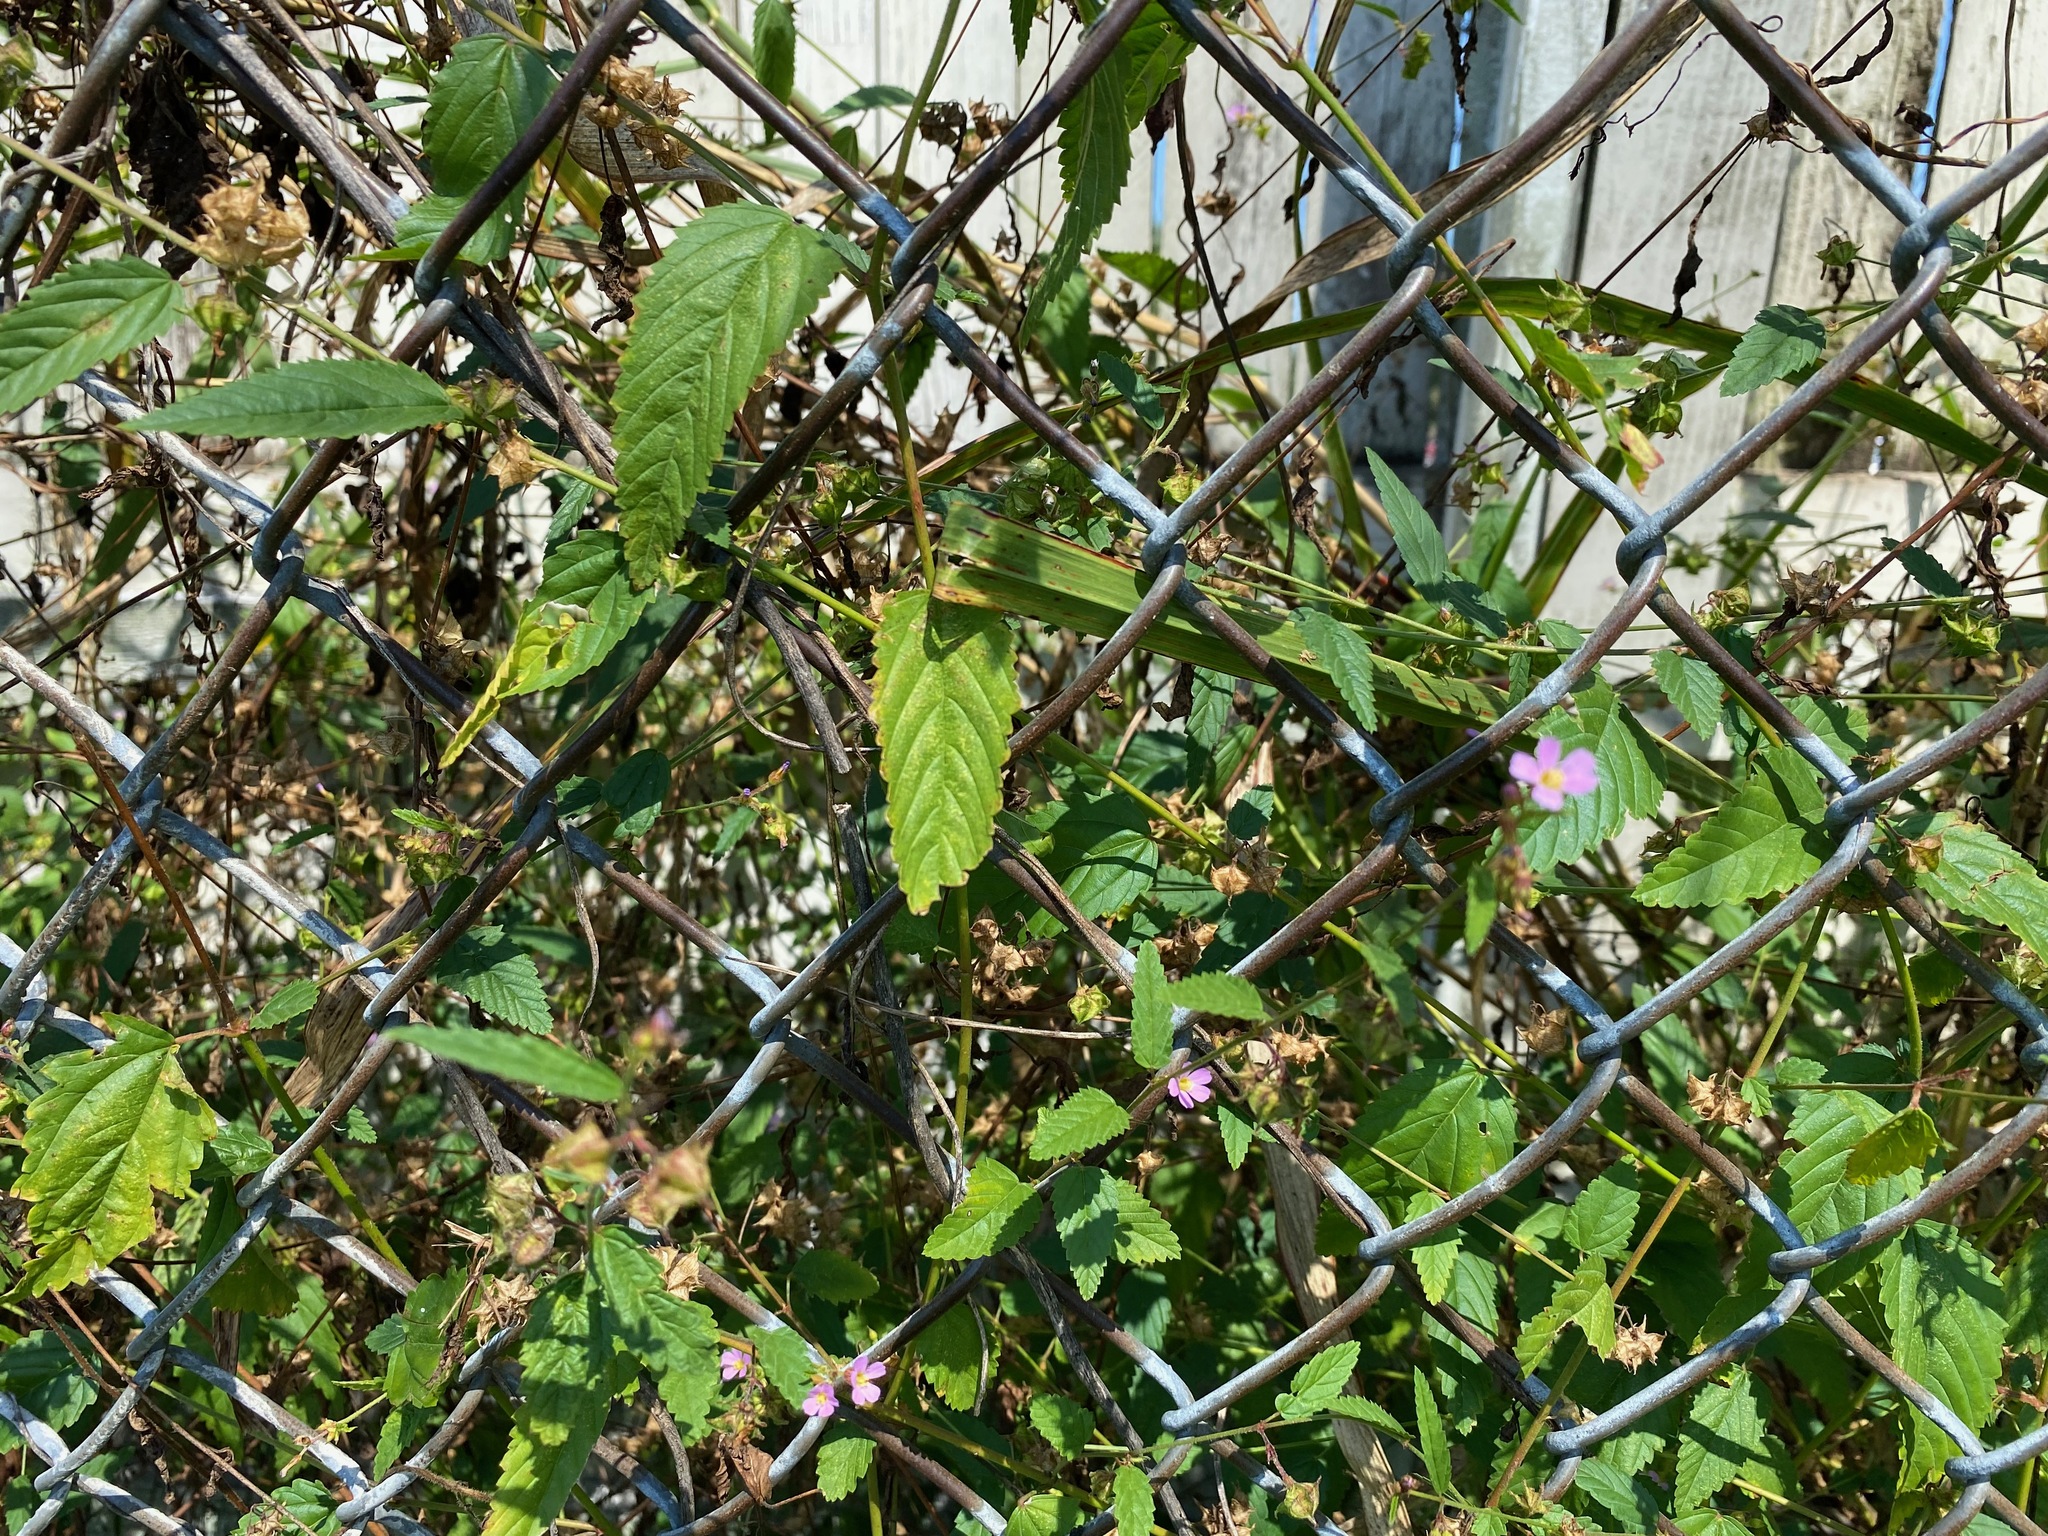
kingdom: Plantae
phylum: Tracheophyta
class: Magnoliopsida
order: Malvales
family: Malvaceae
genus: Melochia
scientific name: Melochia pyramidata
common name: Pyramidflower
